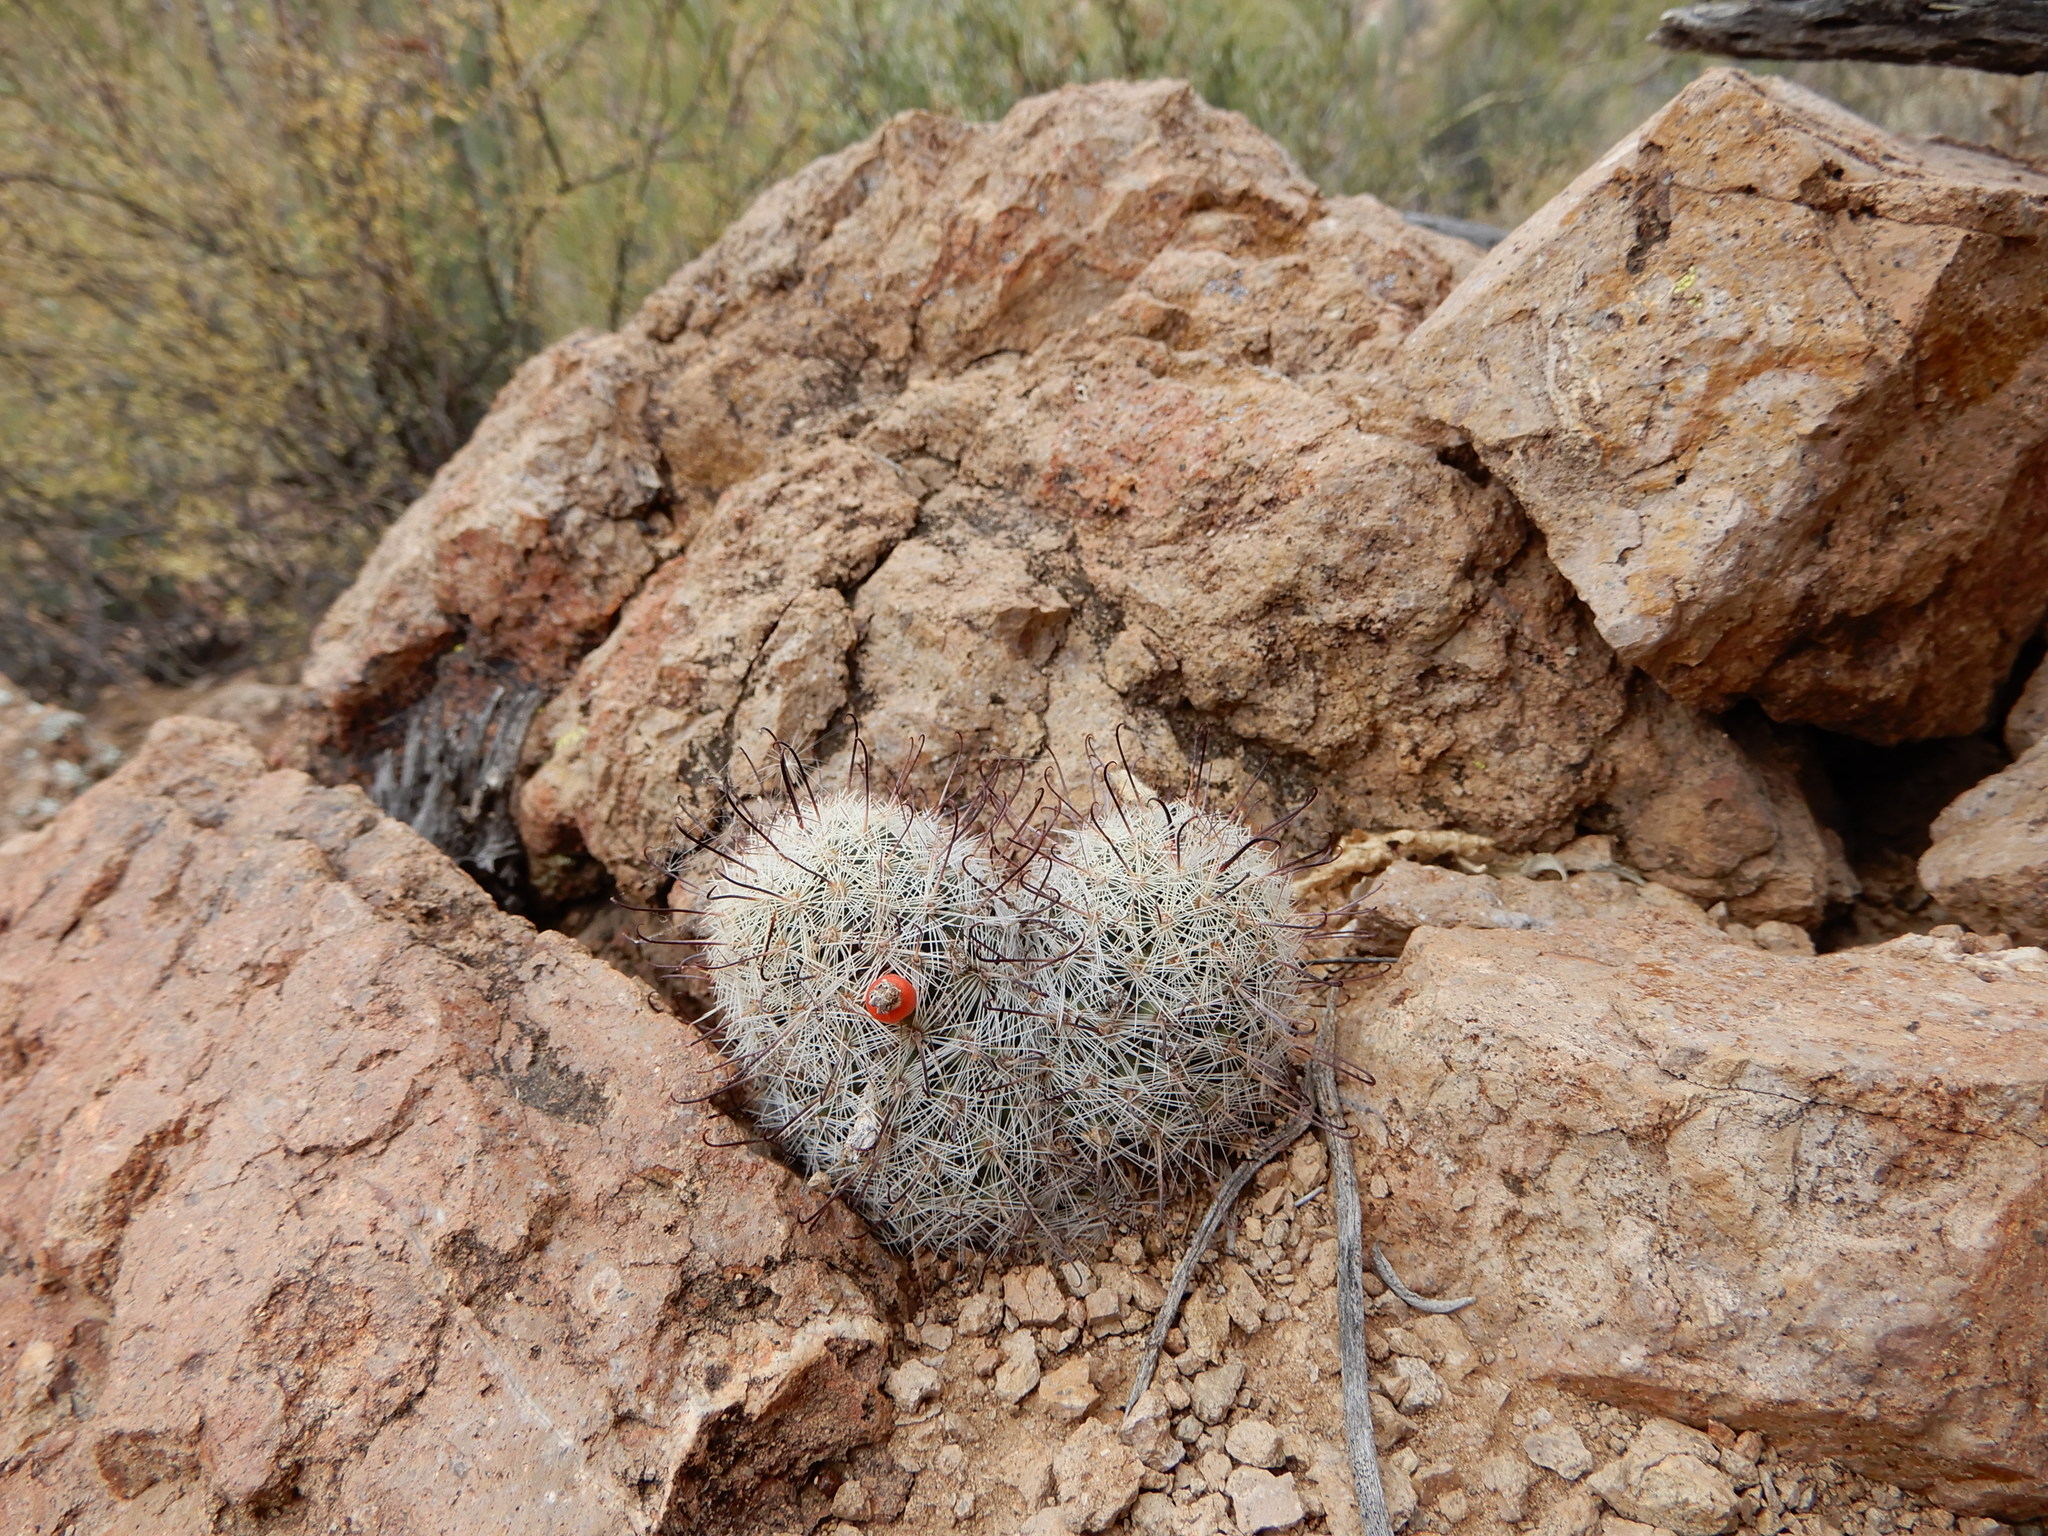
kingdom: Plantae
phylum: Tracheophyta
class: Magnoliopsida
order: Caryophyllales
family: Cactaceae
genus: Cochemiea
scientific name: Cochemiea grahamii
